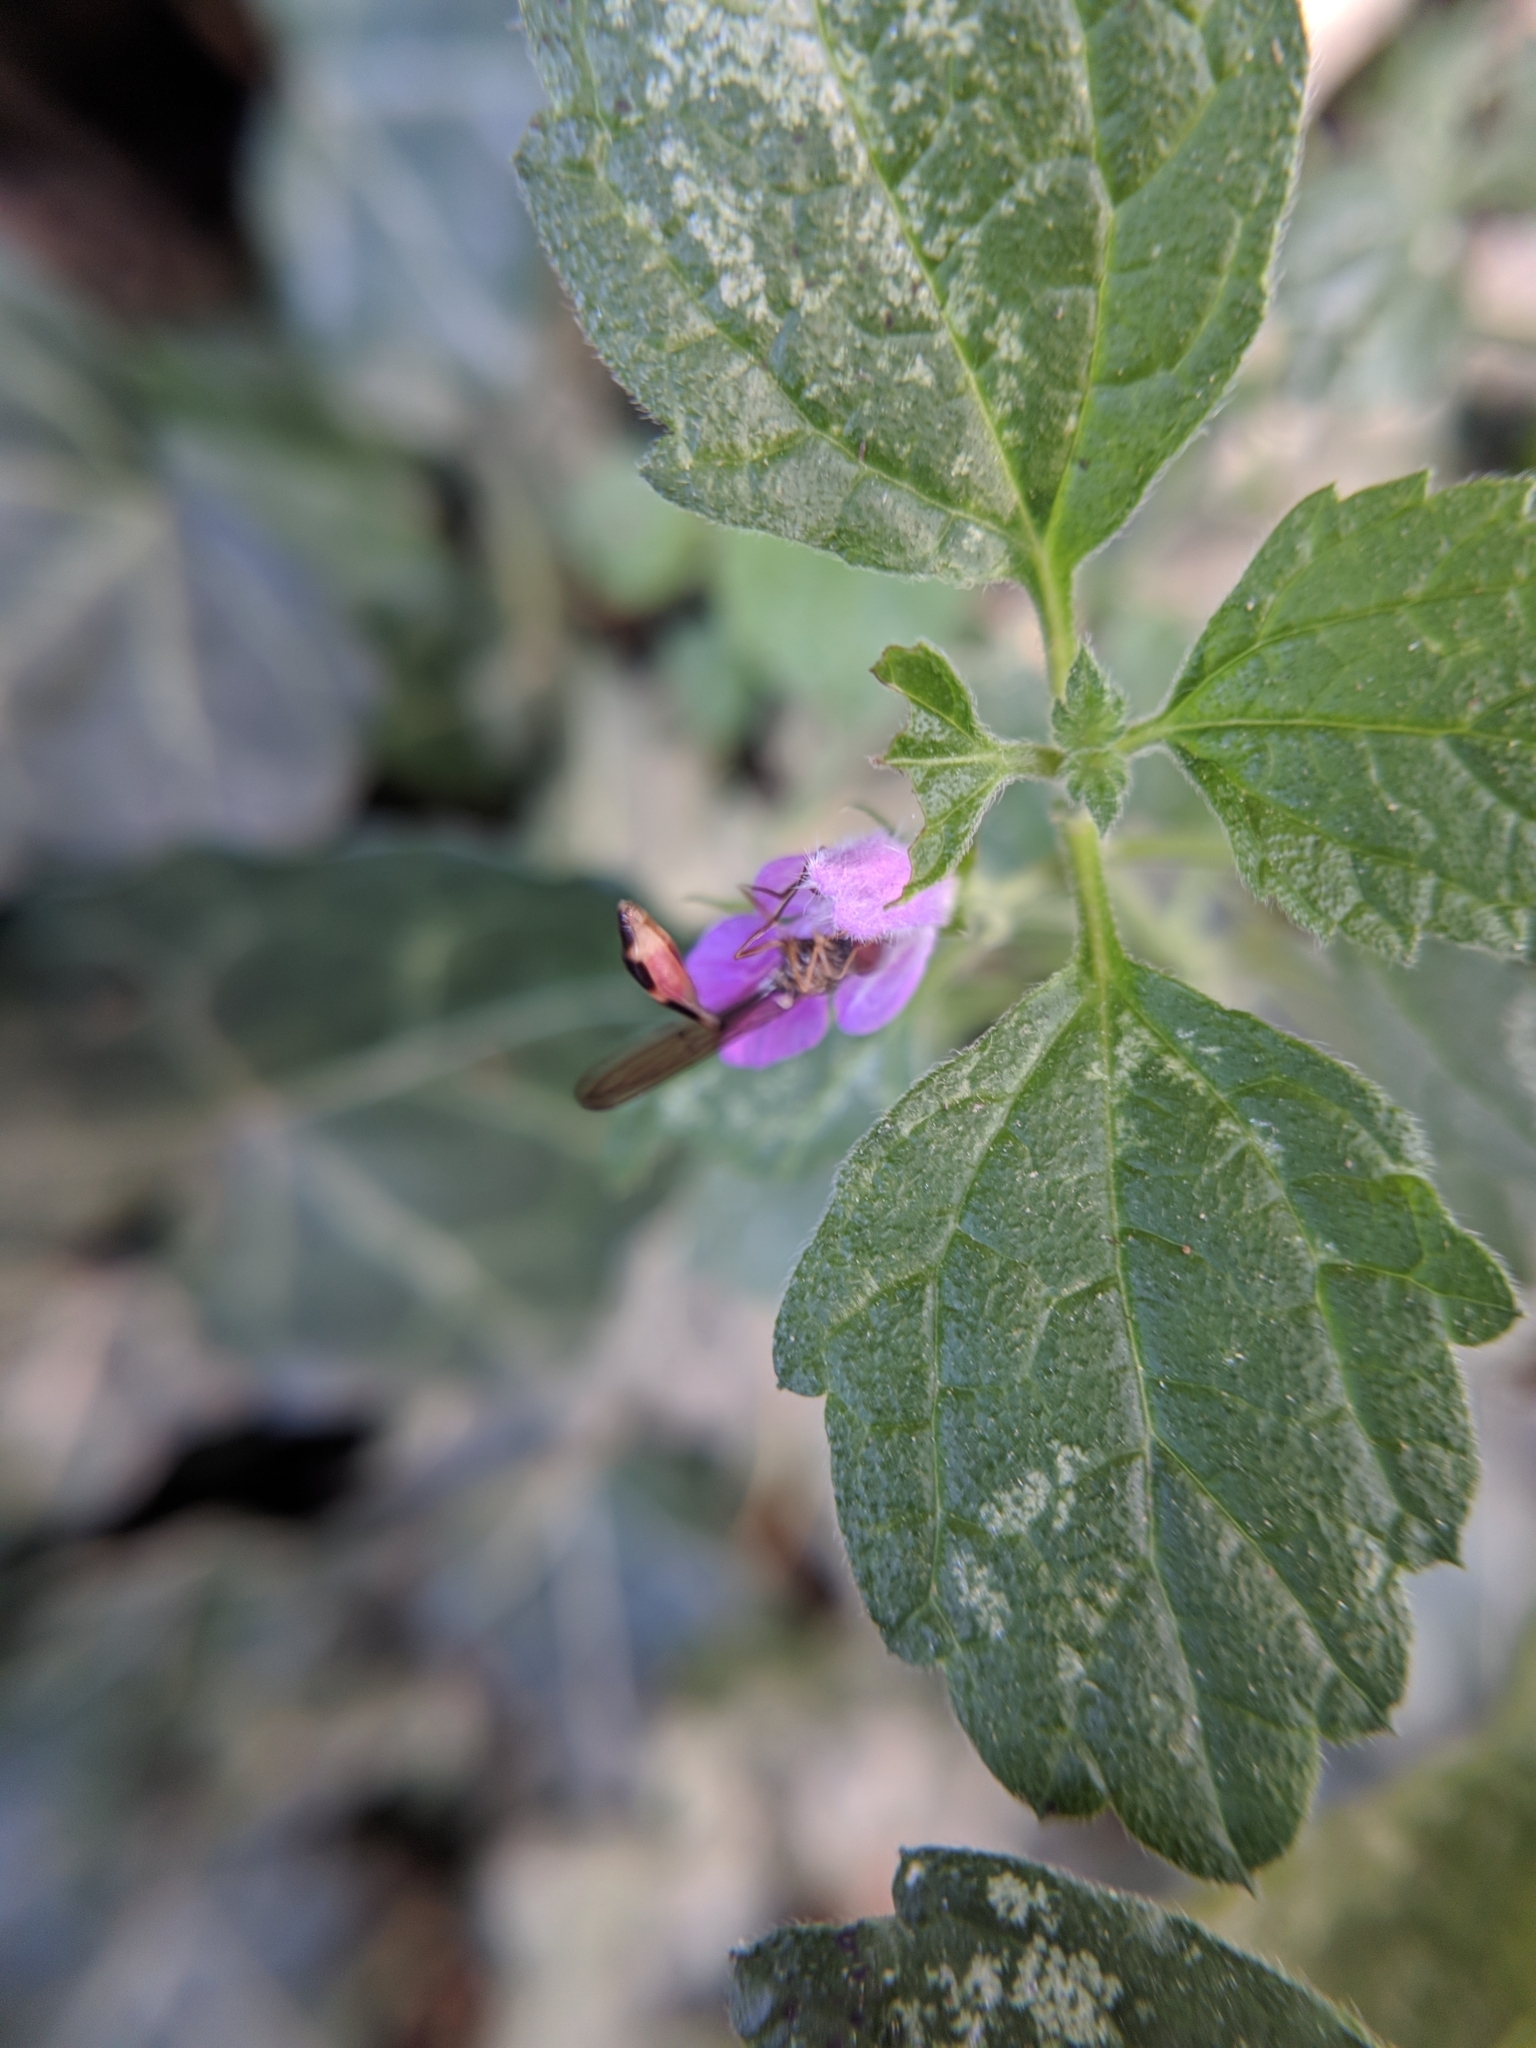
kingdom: Animalia
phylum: Arthropoda
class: Insecta
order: Diptera
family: Syrphidae
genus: Baccha
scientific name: Baccha elongata
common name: Common dainty
